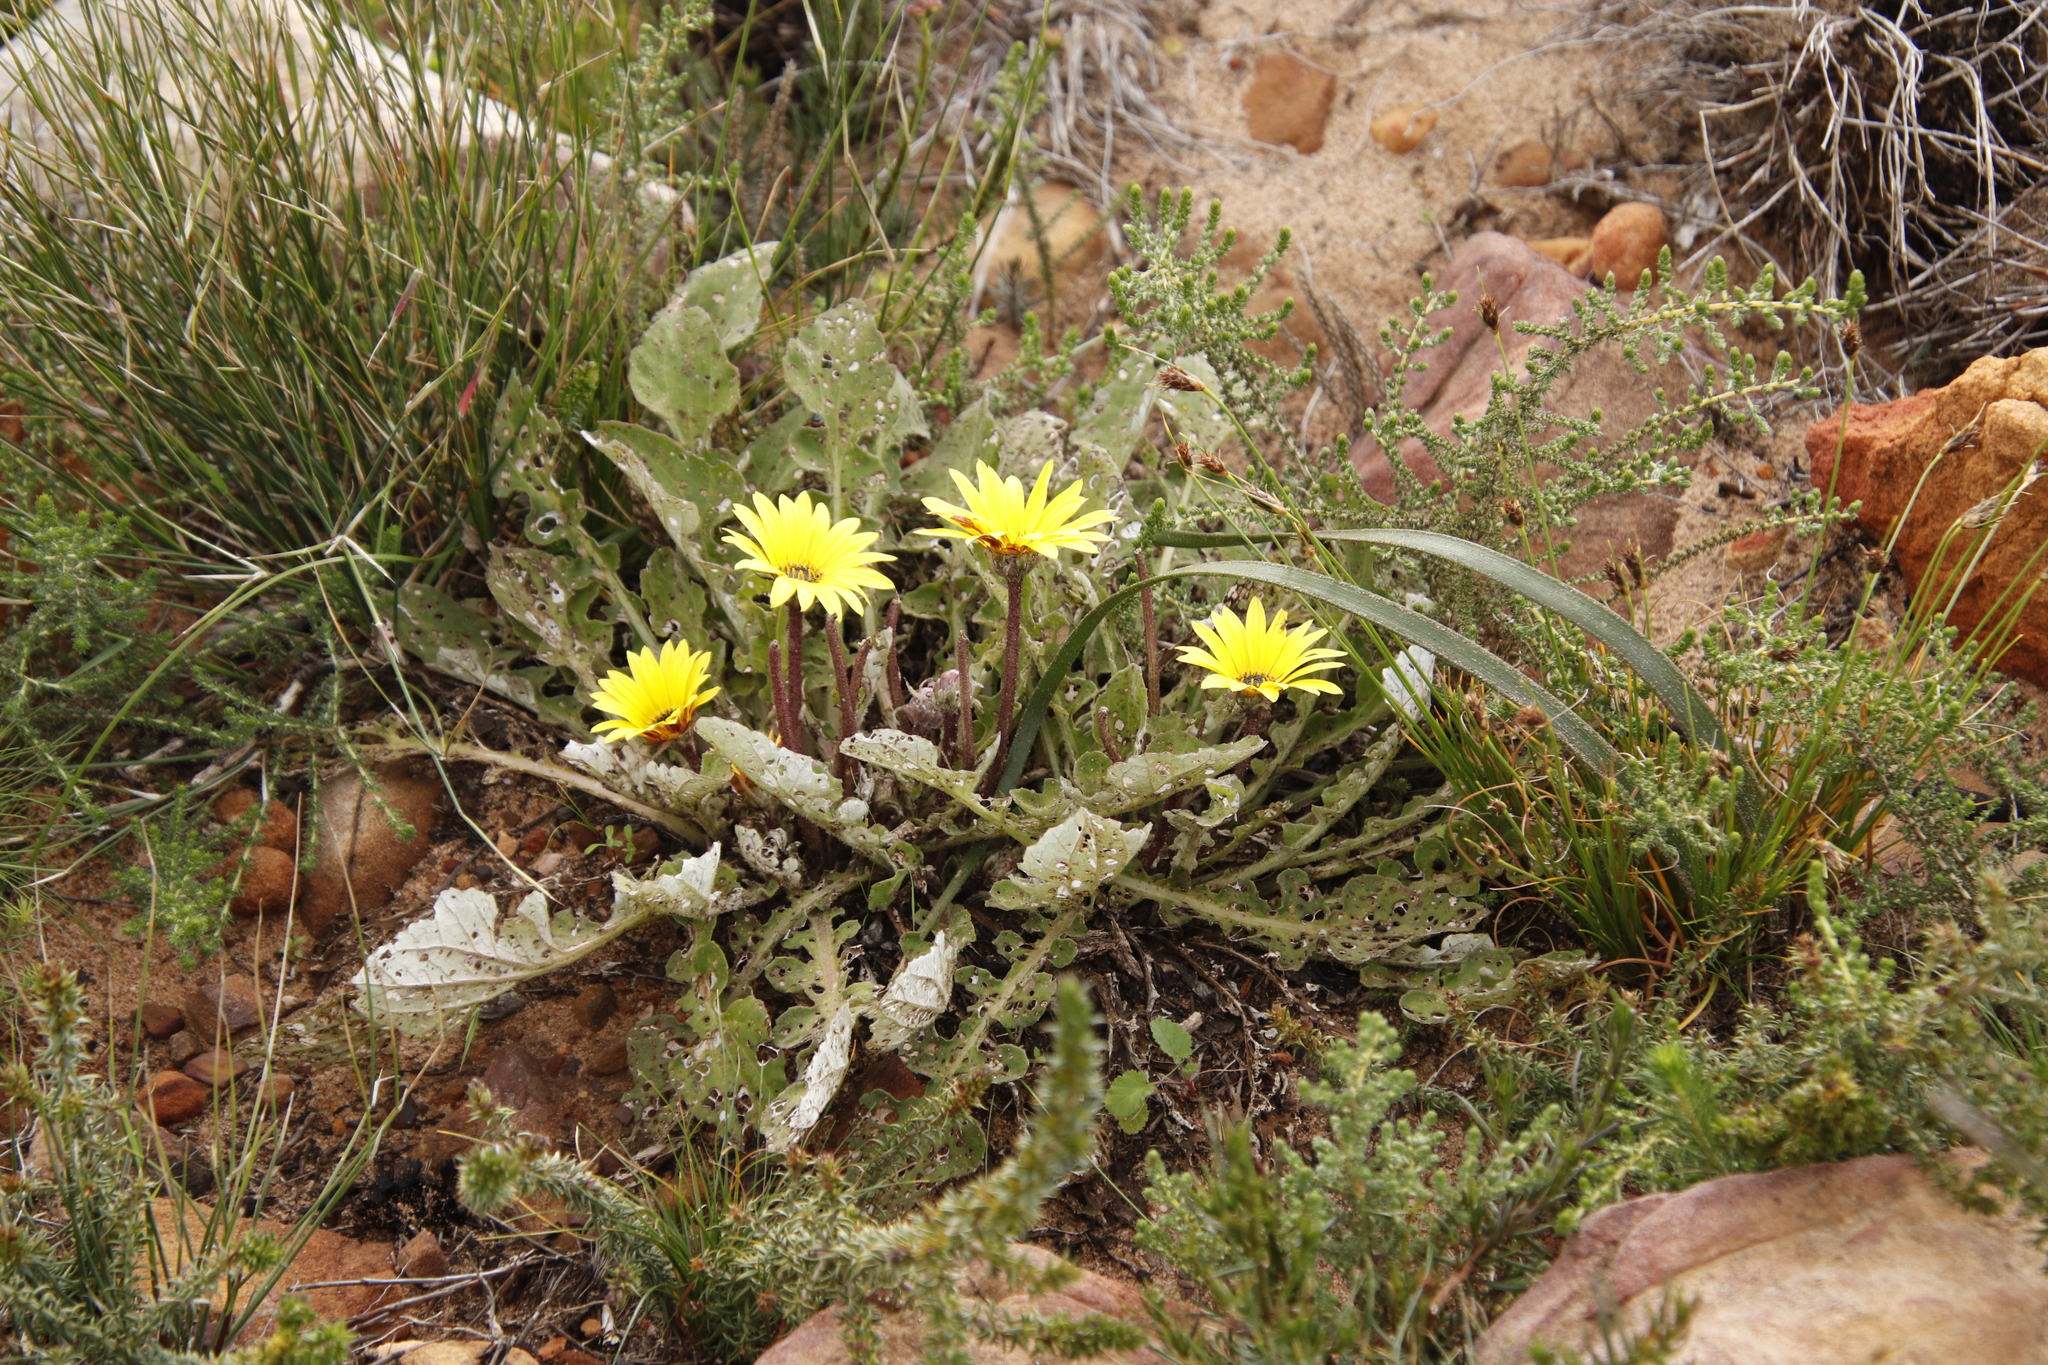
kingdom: Plantae
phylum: Tracheophyta
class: Magnoliopsida
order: Asterales
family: Asteraceae
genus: Arctotis
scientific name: Arctotis acaulis
